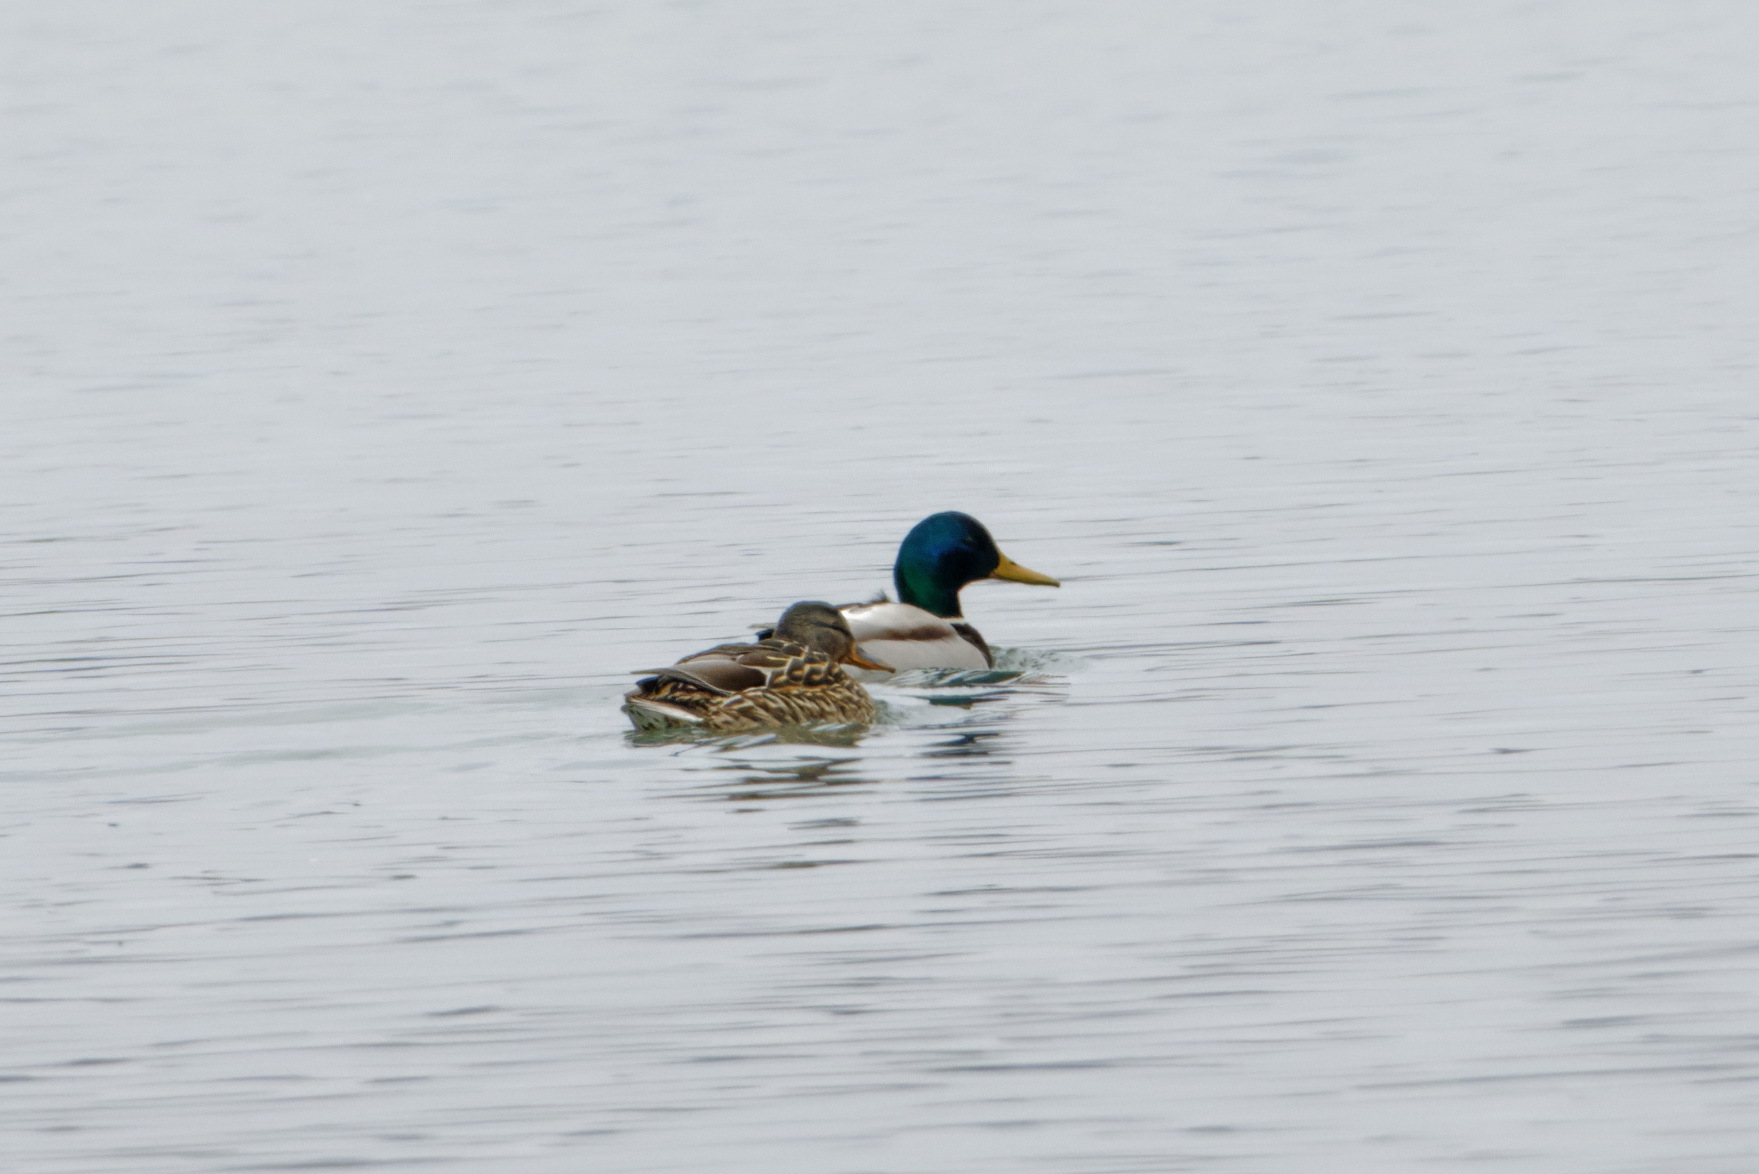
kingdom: Animalia
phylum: Chordata
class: Aves
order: Anseriformes
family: Anatidae
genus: Anas
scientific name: Anas platyrhynchos
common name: Mallard
